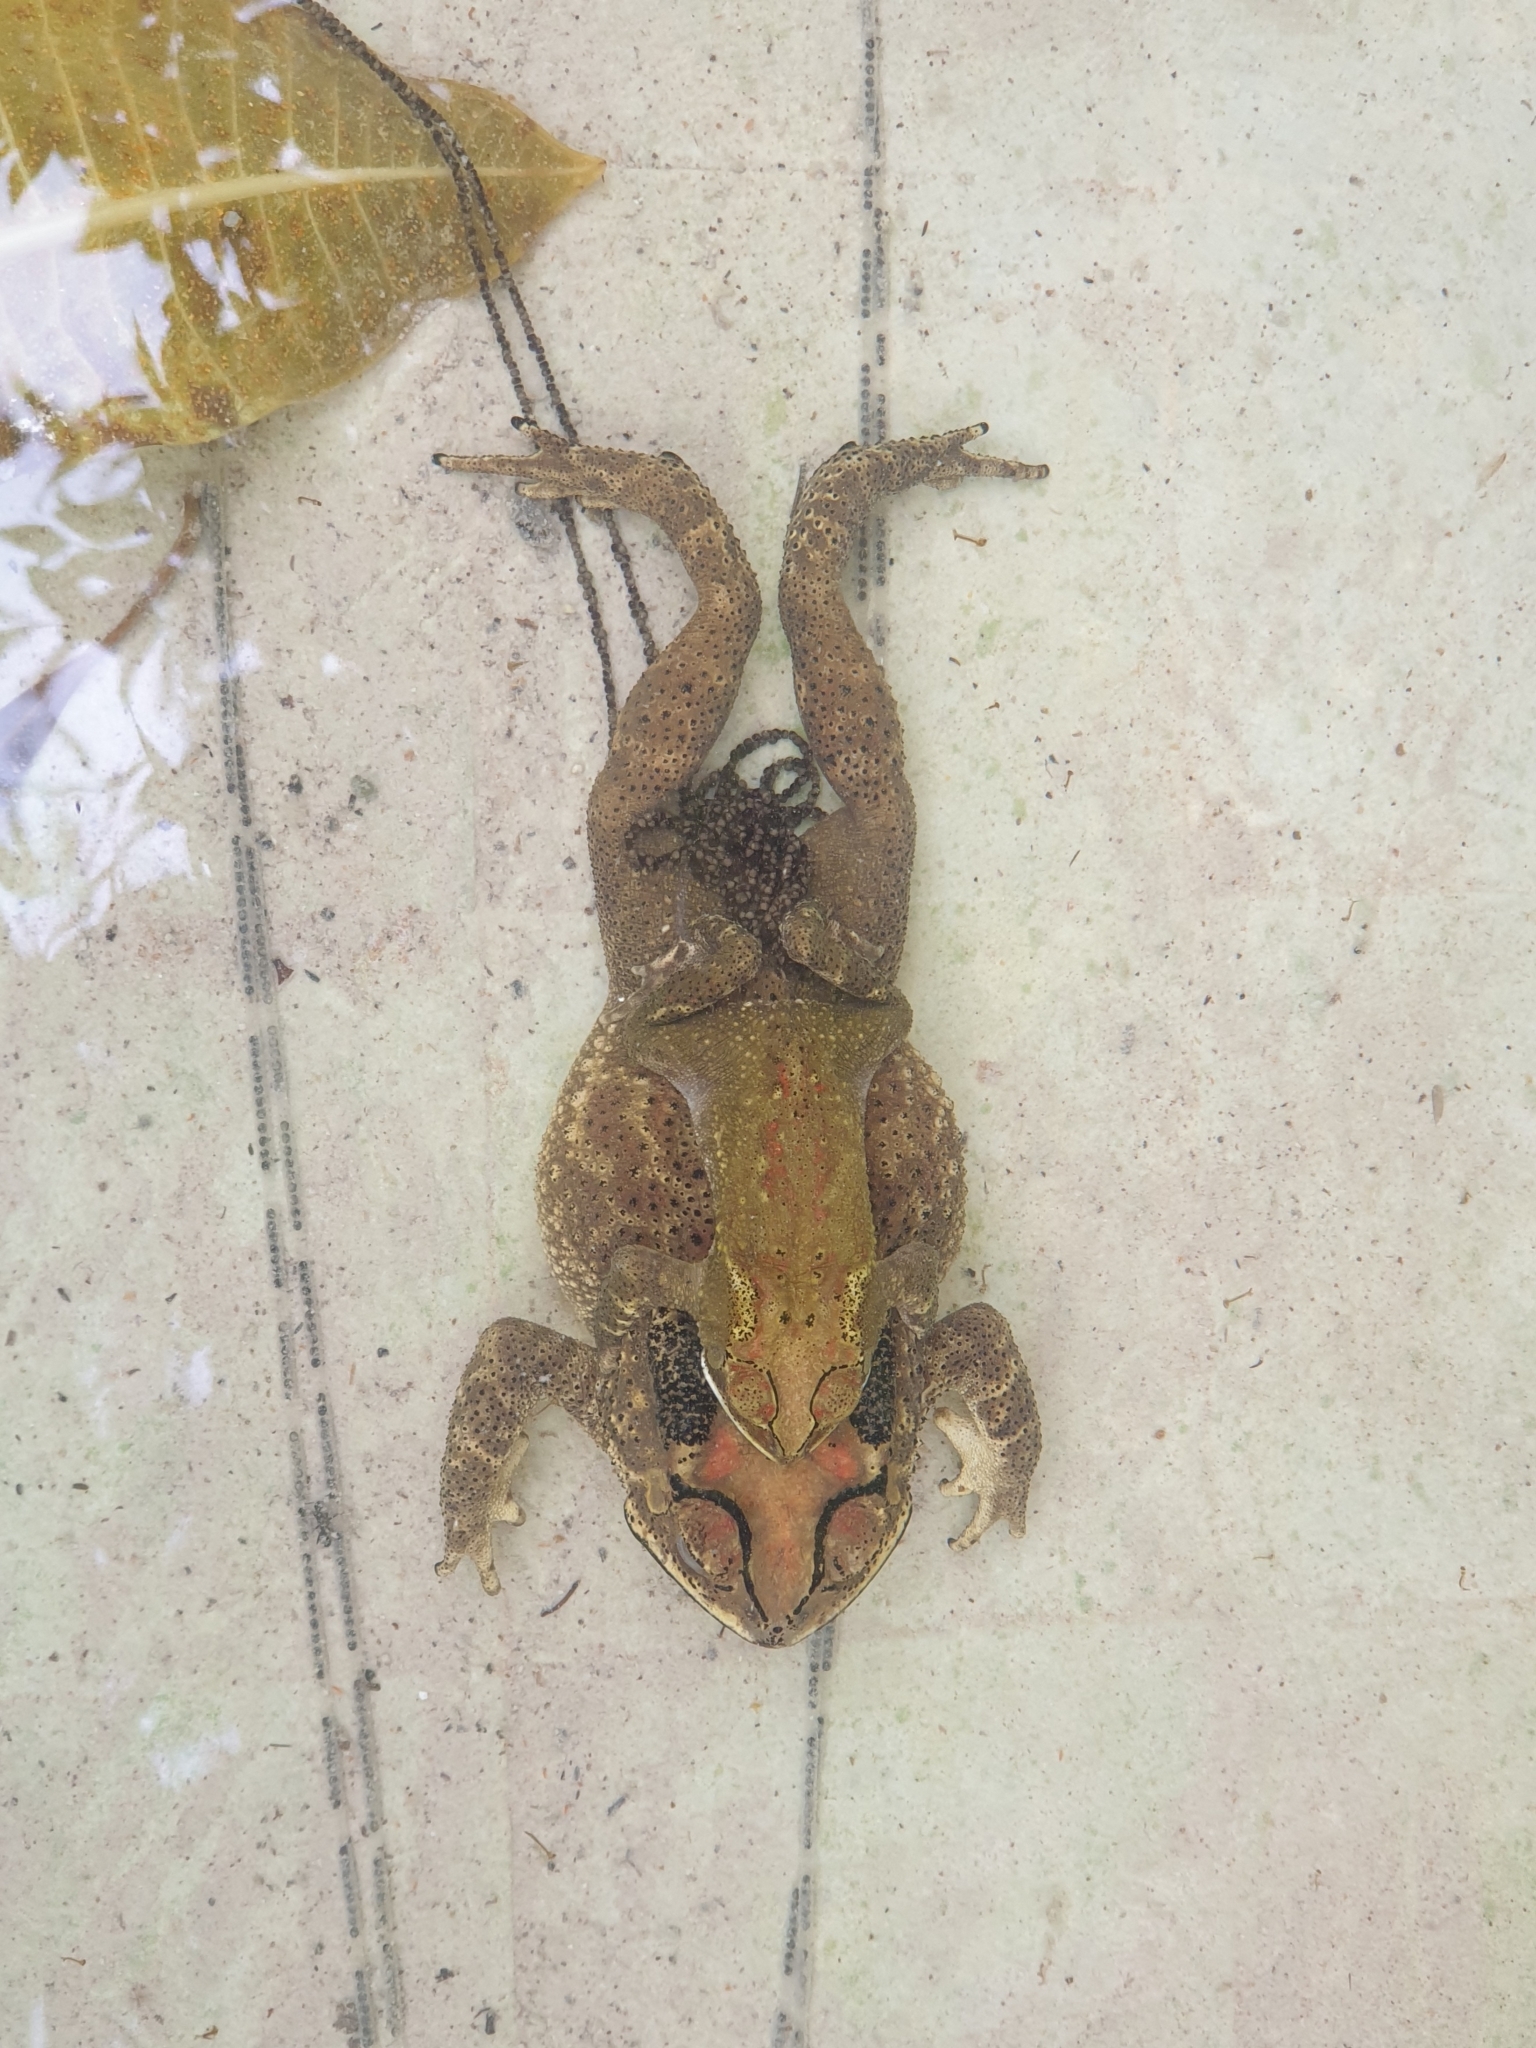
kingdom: Animalia
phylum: Chordata
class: Amphibia
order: Anura
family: Bufonidae
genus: Duttaphrynus
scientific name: Duttaphrynus melanostictus
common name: Common sunda toad
